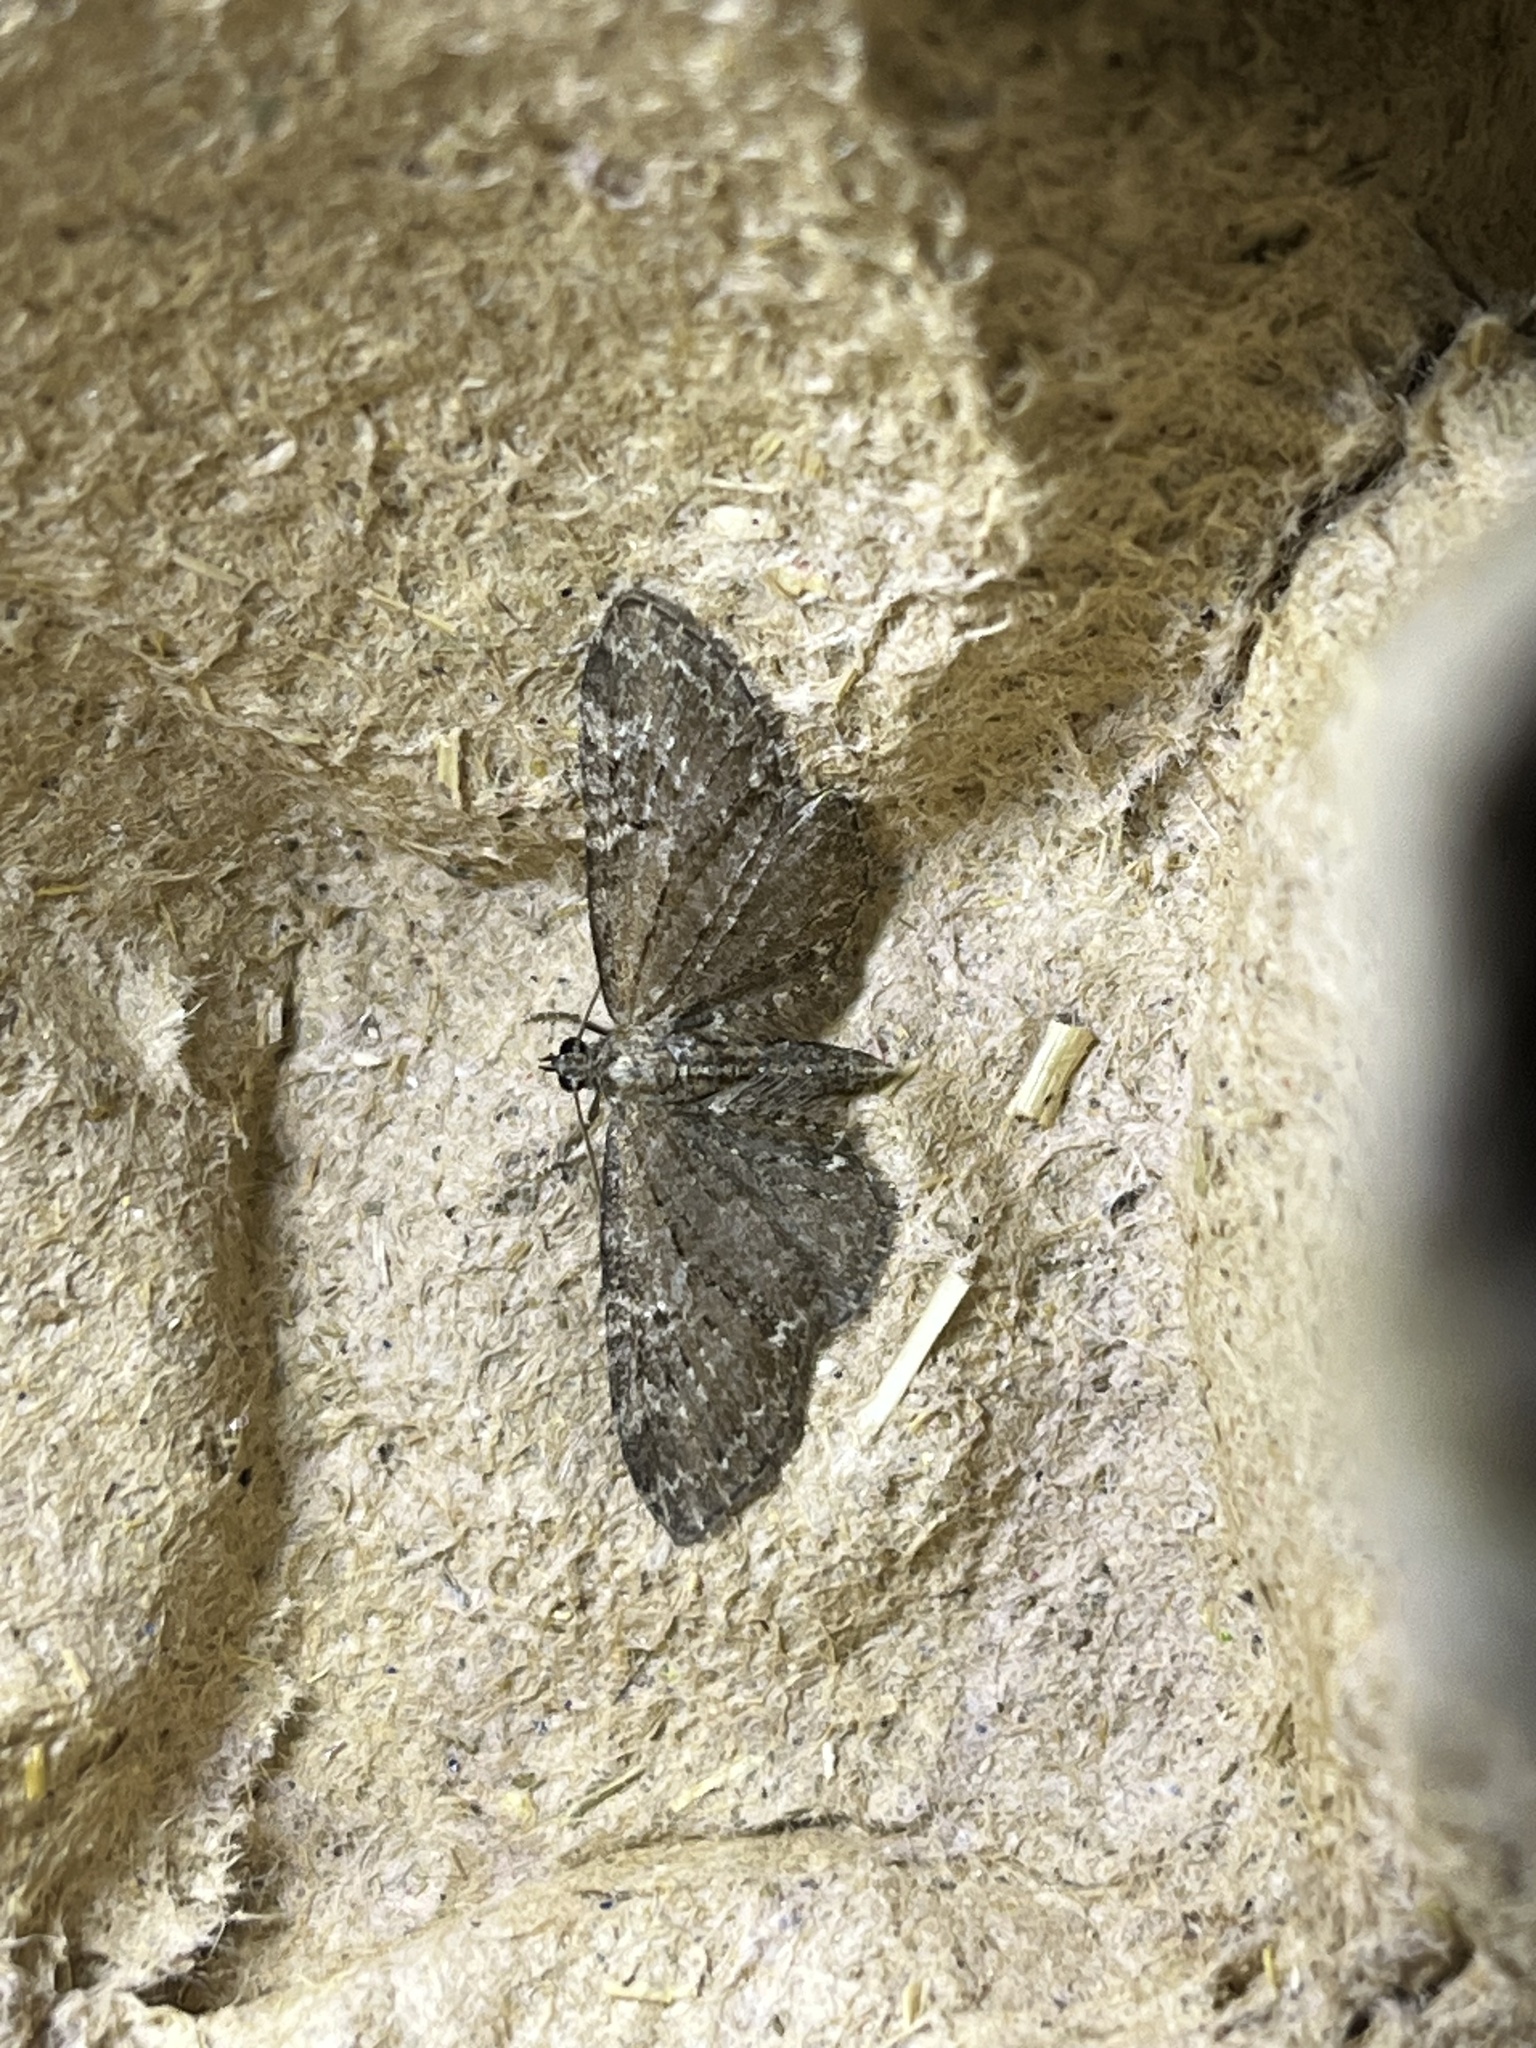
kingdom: Animalia
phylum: Arthropoda
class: Insecta
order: Lepidoptera
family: Geometridae
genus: Eupithecia
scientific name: Eupithecia vulgata
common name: Common pug
